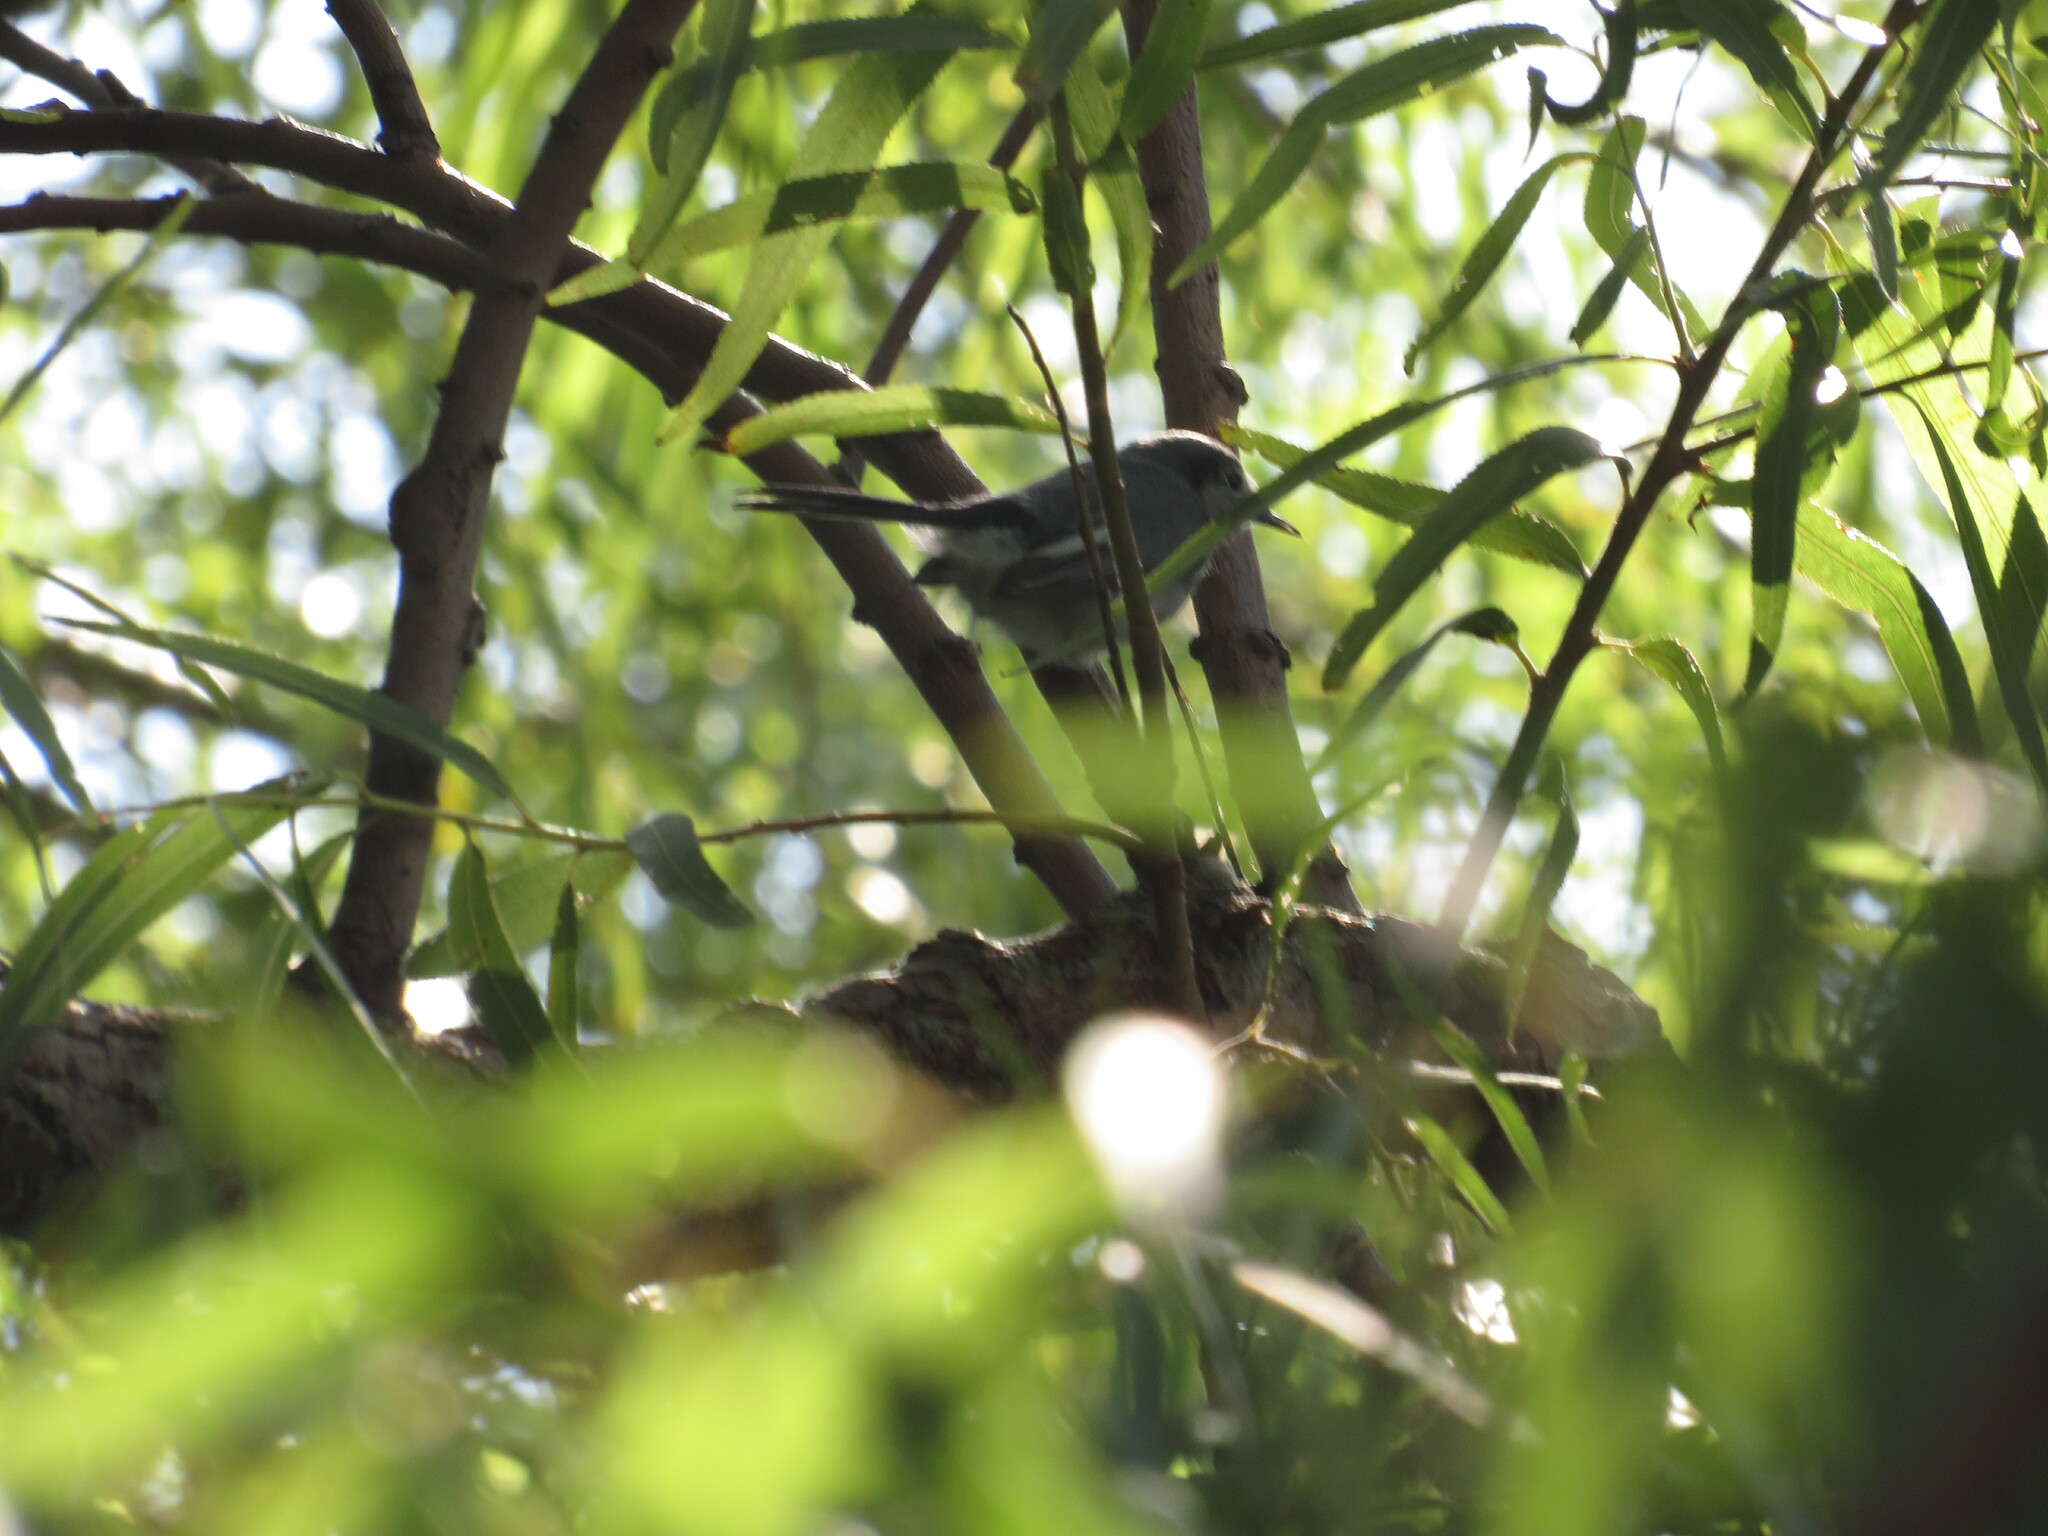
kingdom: Animalia
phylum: Chordata
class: Aves
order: Passeriformes
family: Polioptilidae
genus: Polioptila
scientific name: Polioptila dumicola
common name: Masked gnatcatcher
